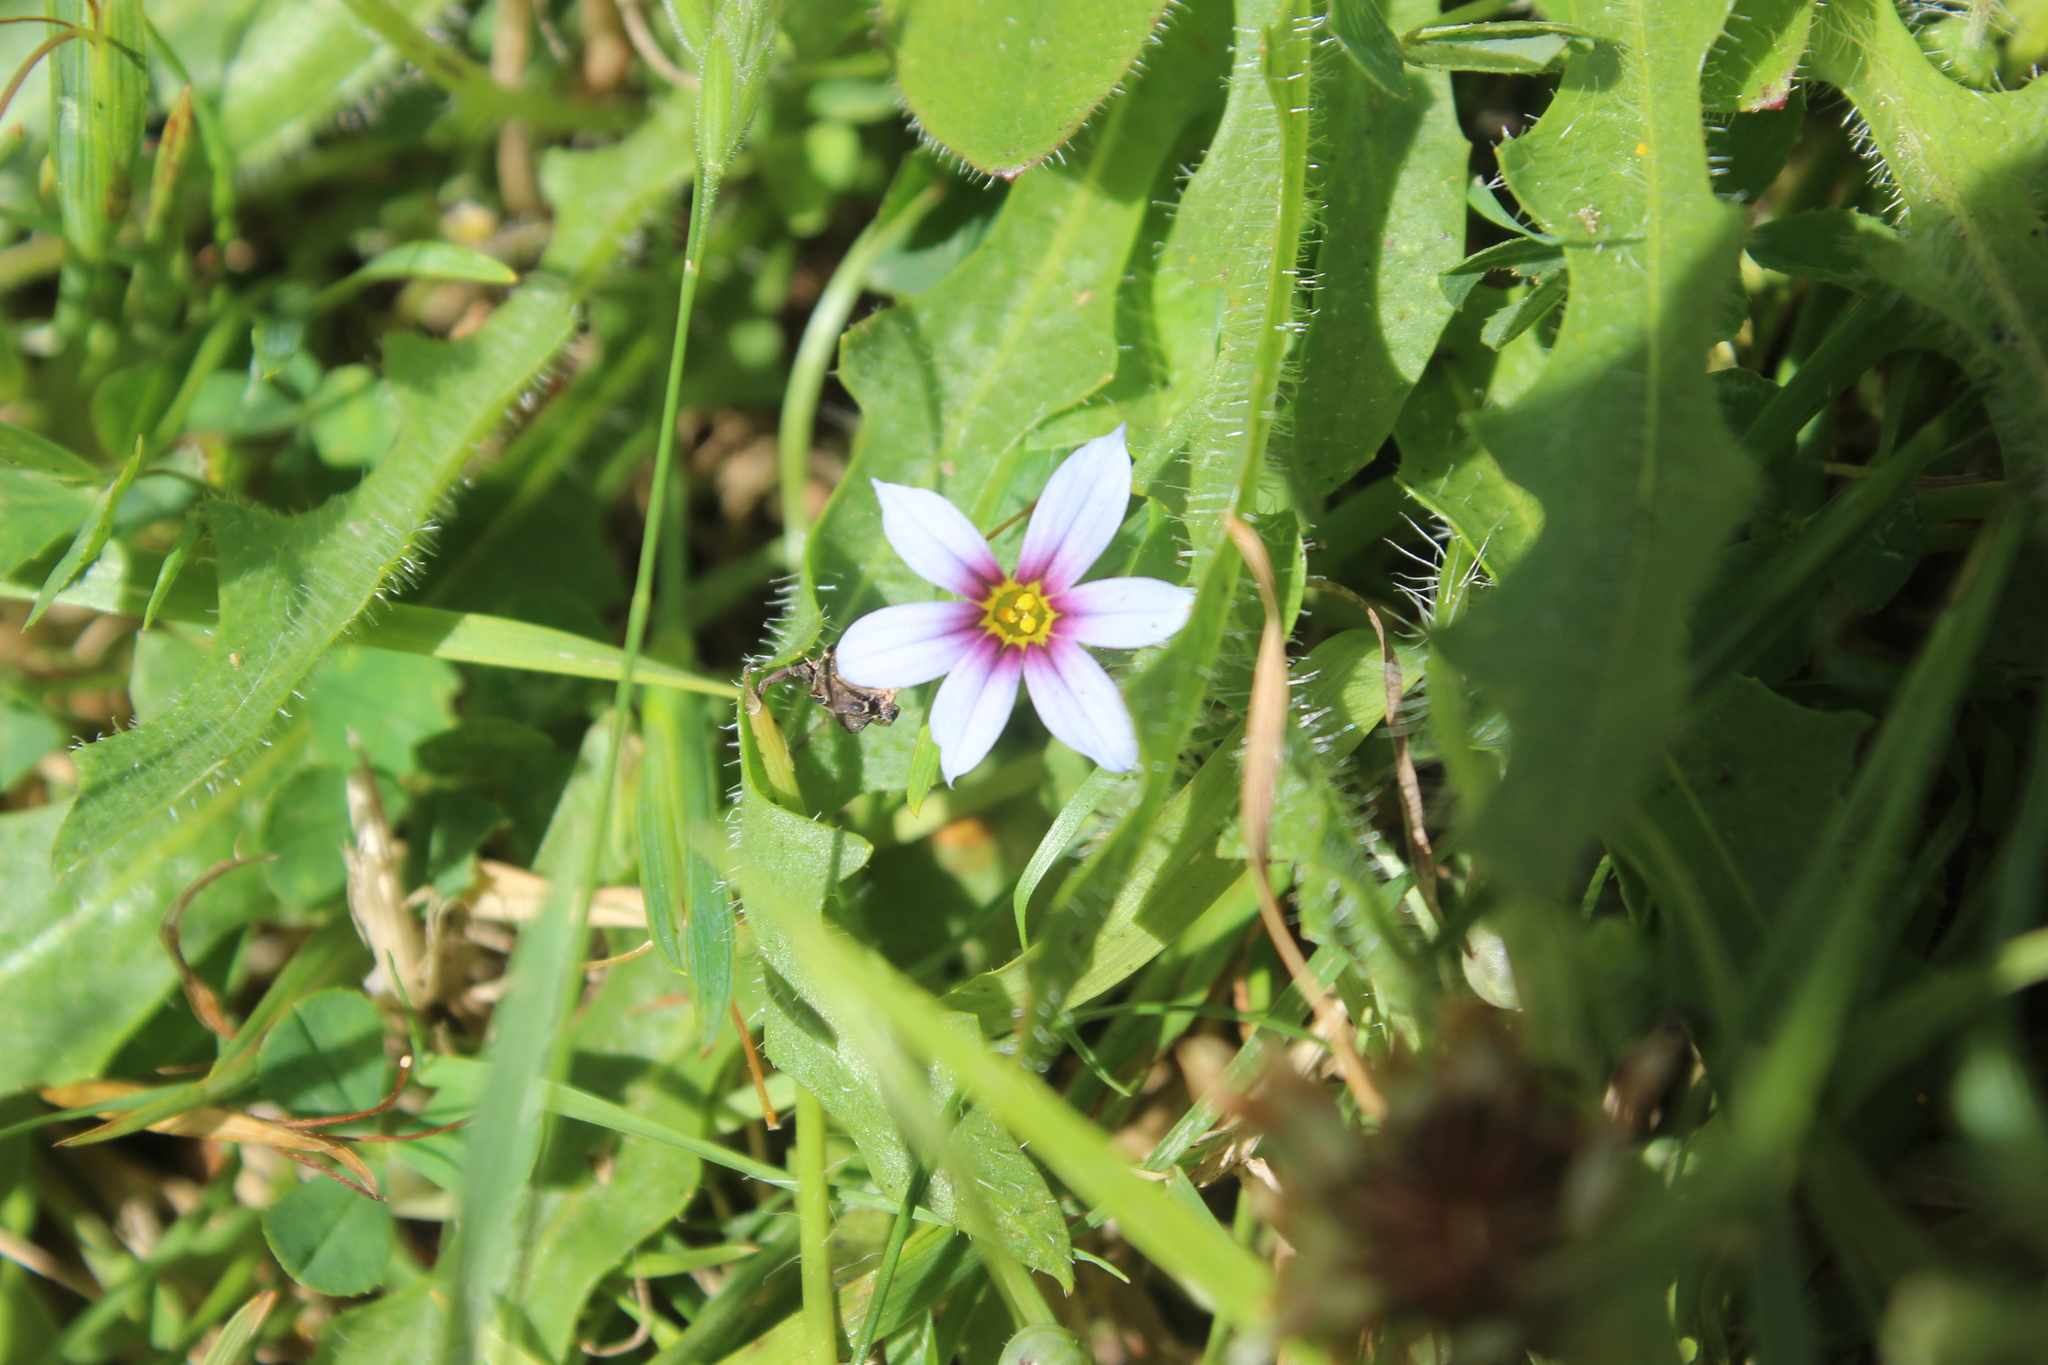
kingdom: Plantae
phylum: Tracheophyta
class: Liliopsida
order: Asparagales
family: Iridaceae
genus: Sisyrinchium
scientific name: Sisyrinchium micranthum
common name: Bermuda pigroot
